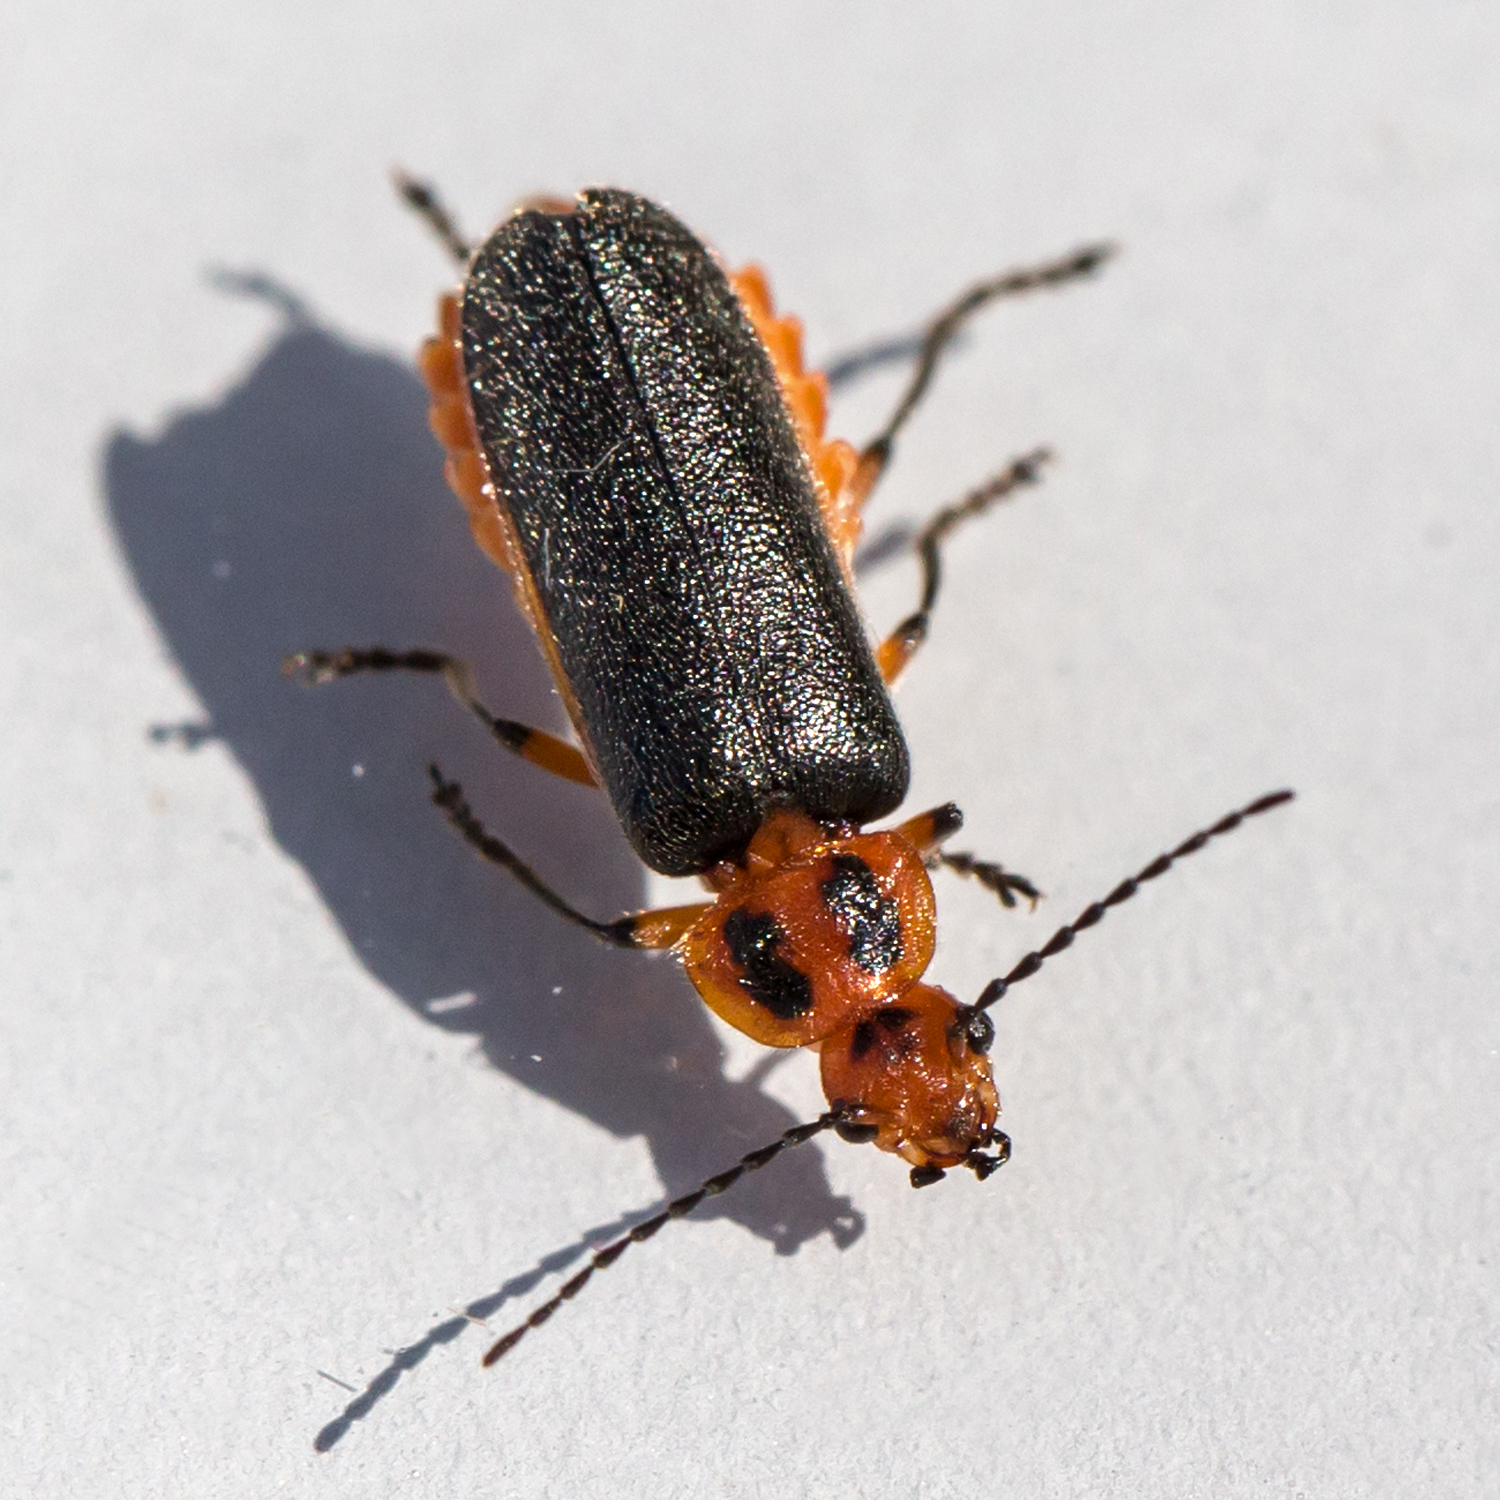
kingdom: Animalia
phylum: Arthropoda
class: Insecta
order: Coleoptera
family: Cantharidae
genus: Atalantycha
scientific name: Atalantycha bilineata
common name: Two-lined leatherwing
